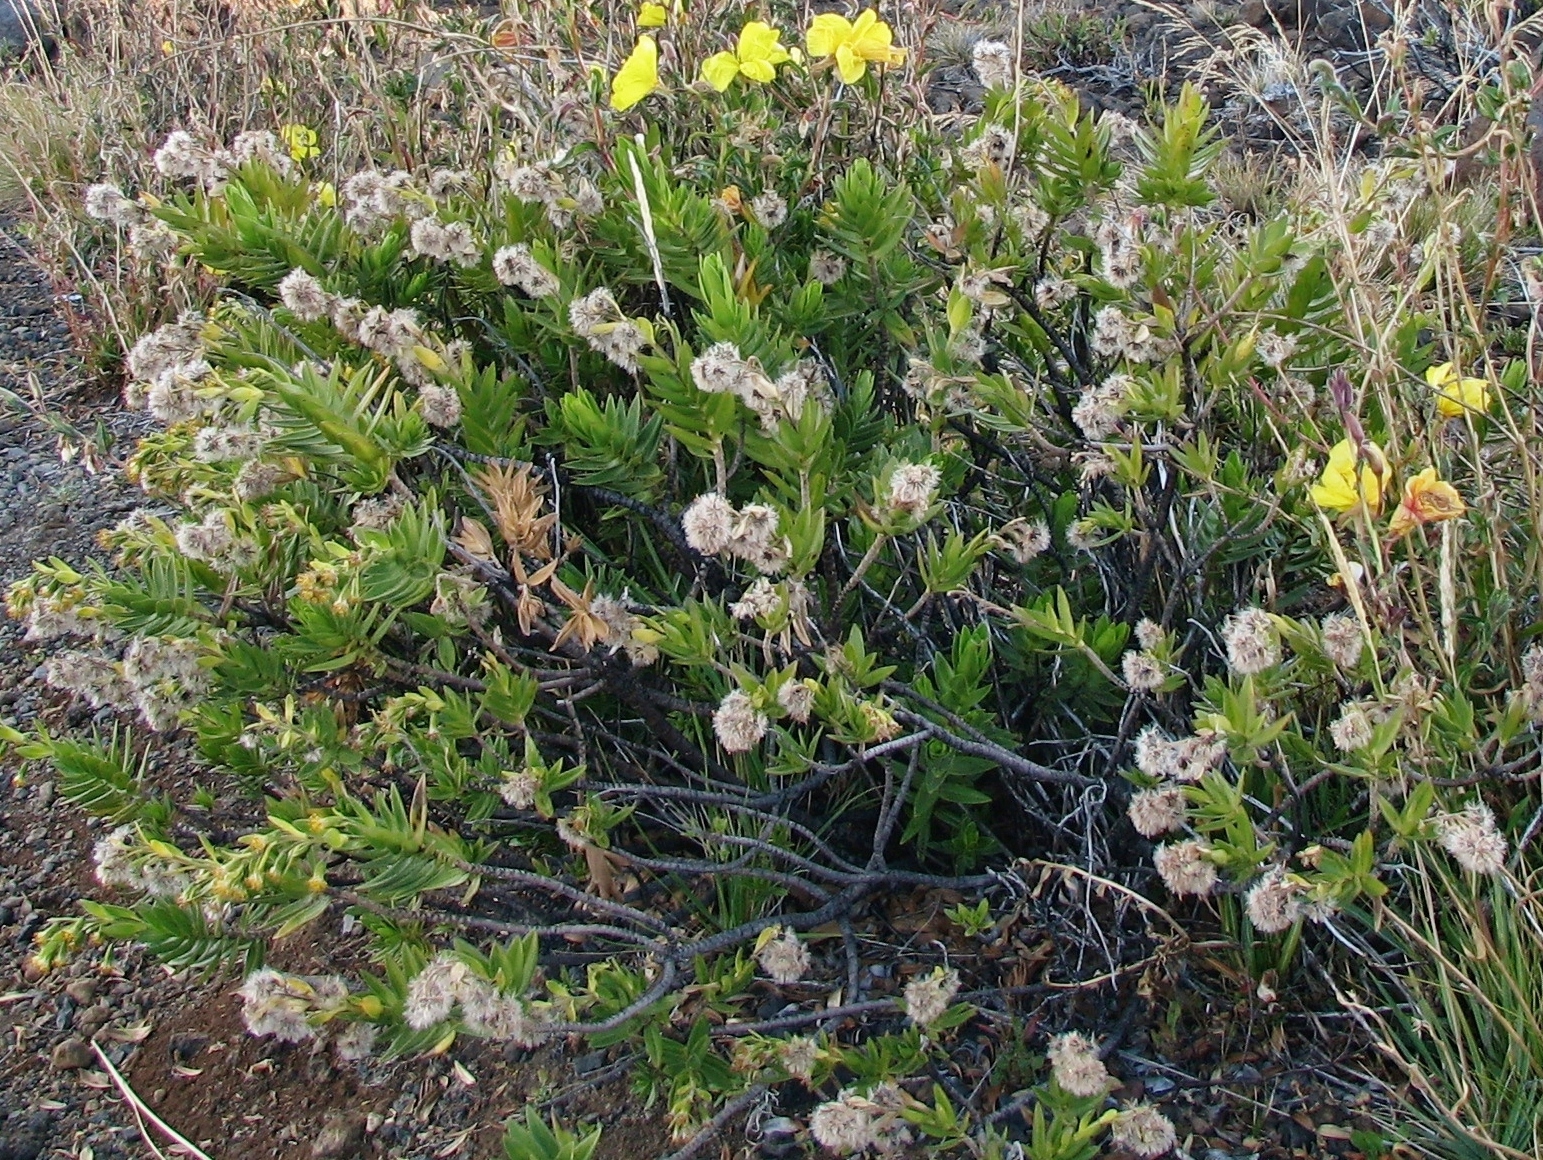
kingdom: Plantae
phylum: Tracheophyta
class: Magnoliopsida
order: Asterales
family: Asteraceae
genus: Dubautia
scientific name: Dubautia menziesii
